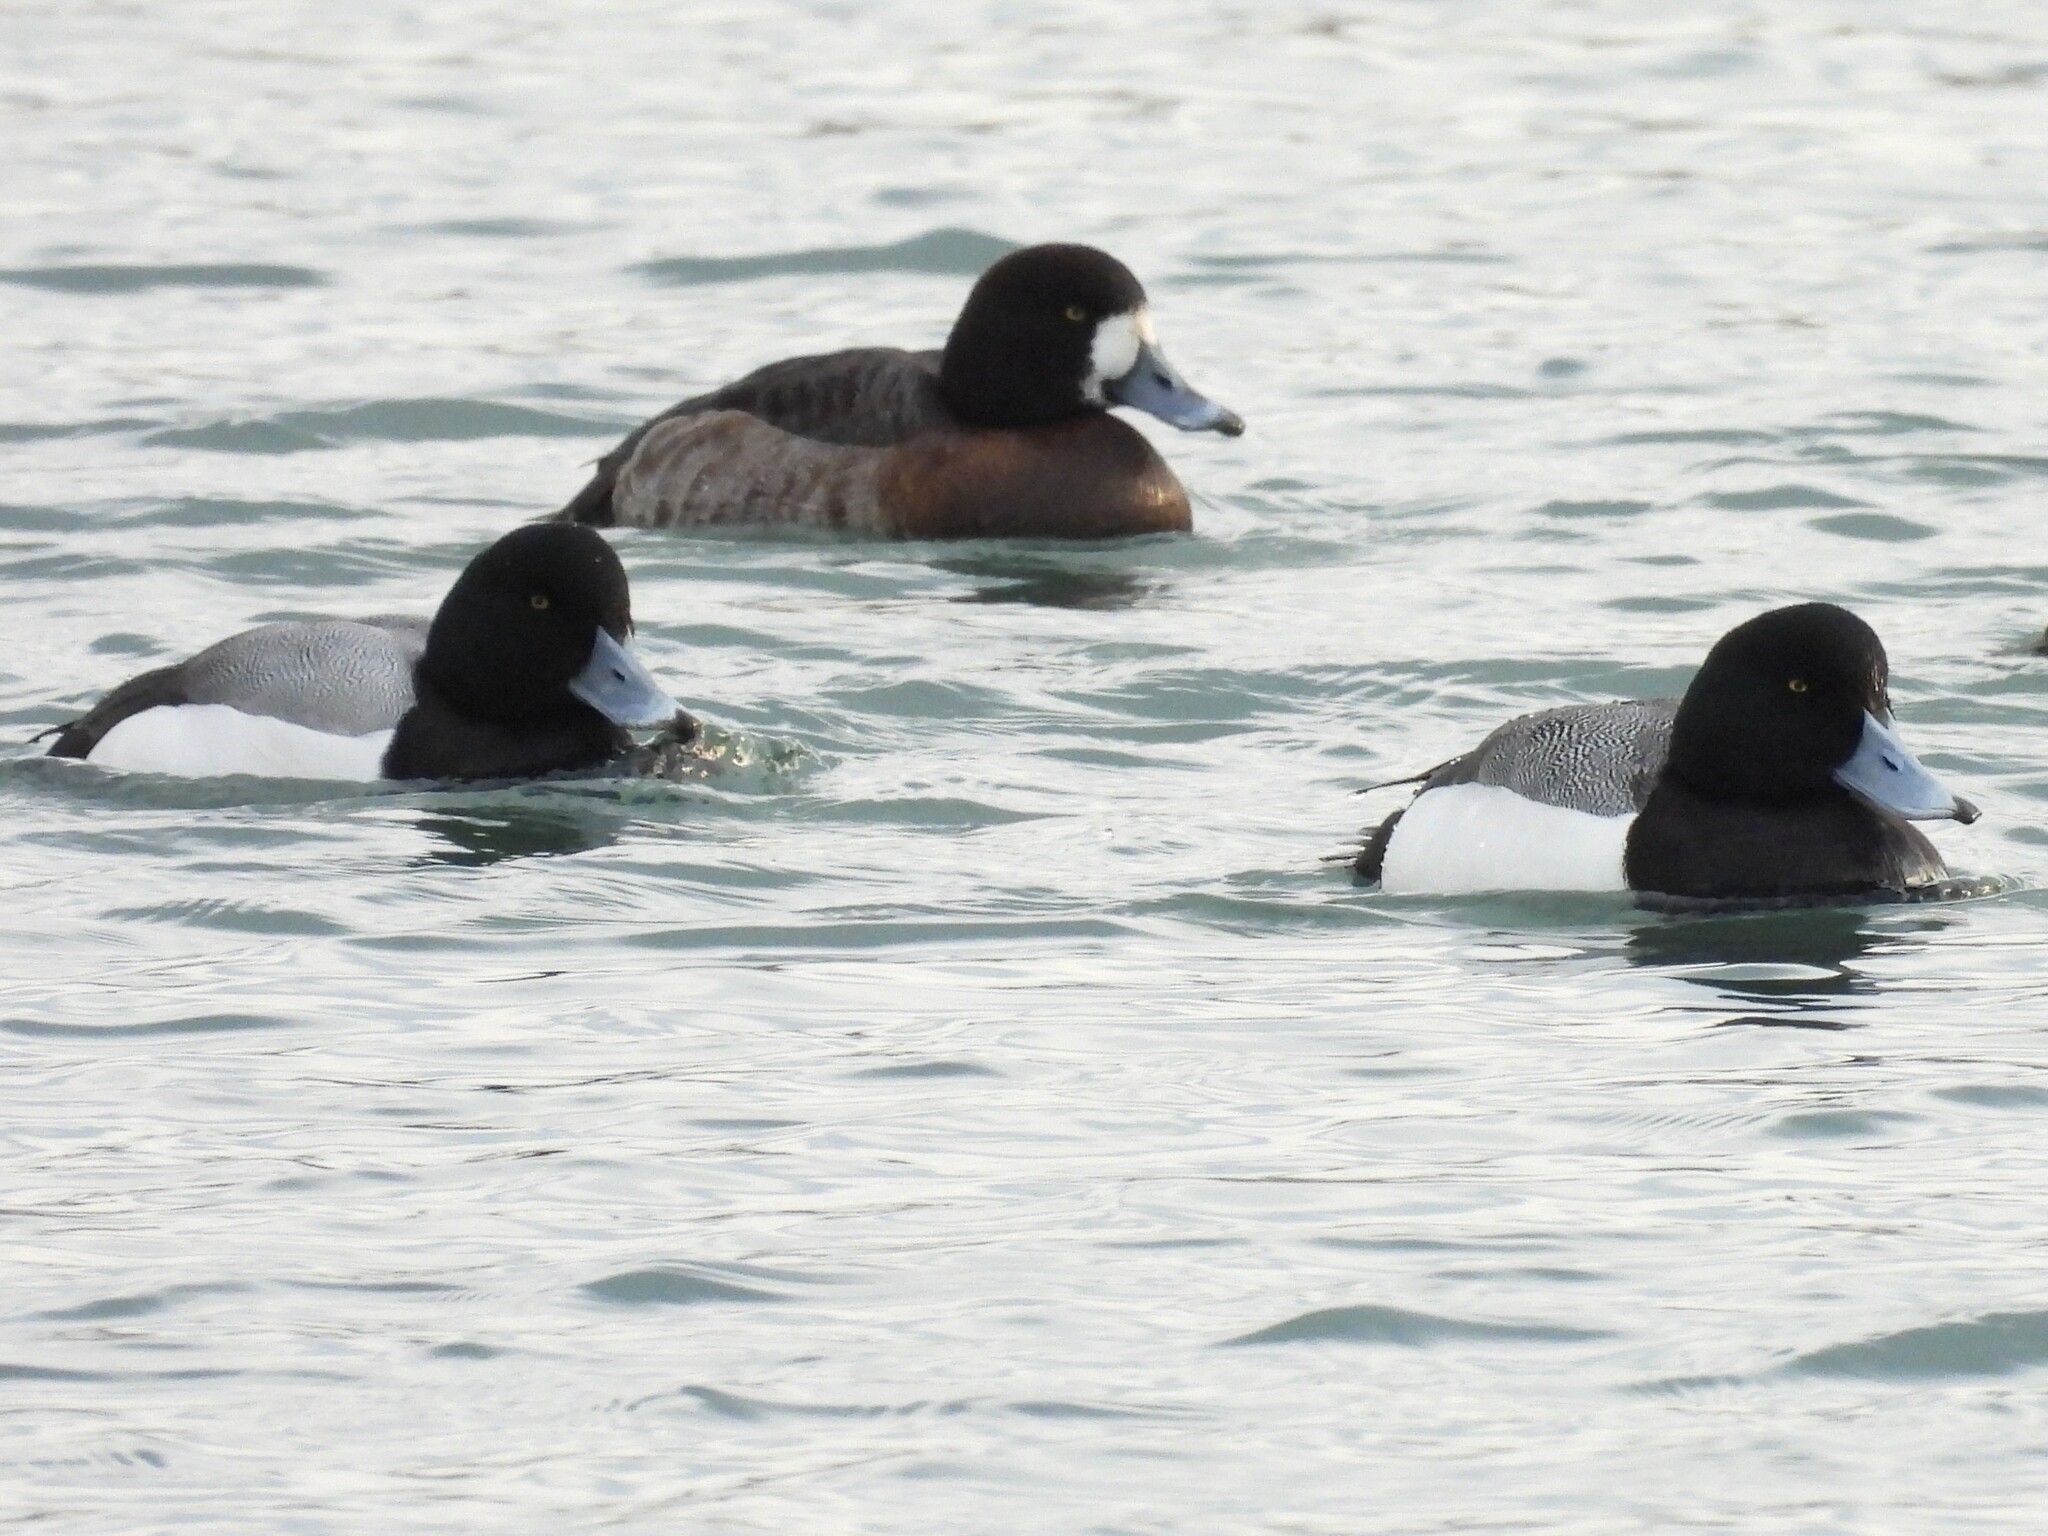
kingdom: Animalia
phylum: Chordata
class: Aves
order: Anseriformes
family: Anatidae
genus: Aythya
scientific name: Aythya marila
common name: Greater scaup
